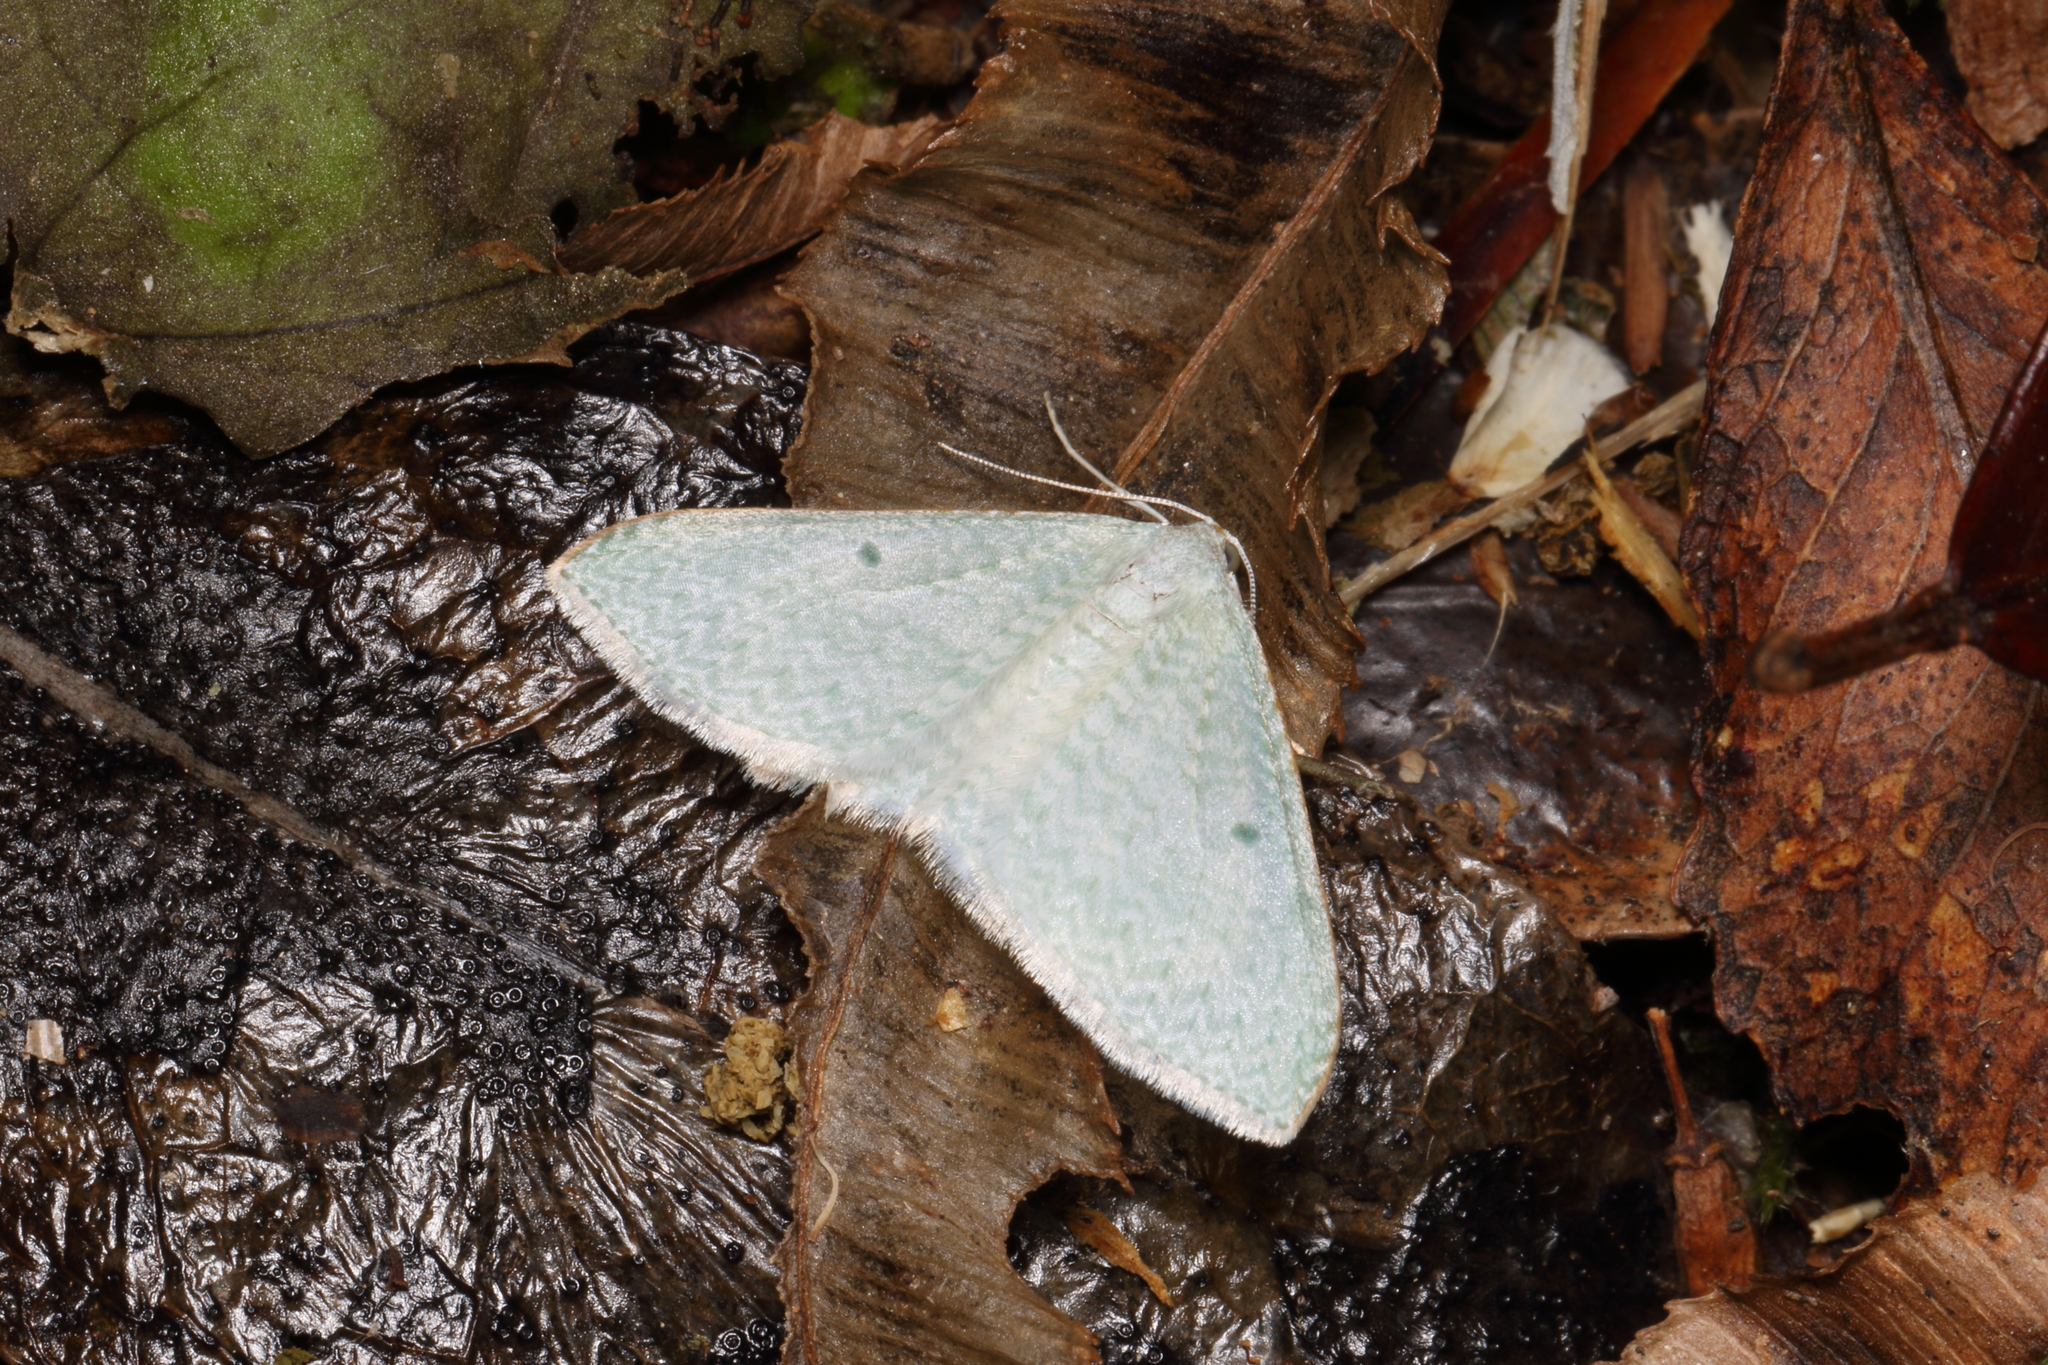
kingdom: Animalia
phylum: Arthropoda
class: Insecta
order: Lepidoptera
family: Geometridae
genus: Poecilasthena
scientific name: Poecilasthena pulchraria
